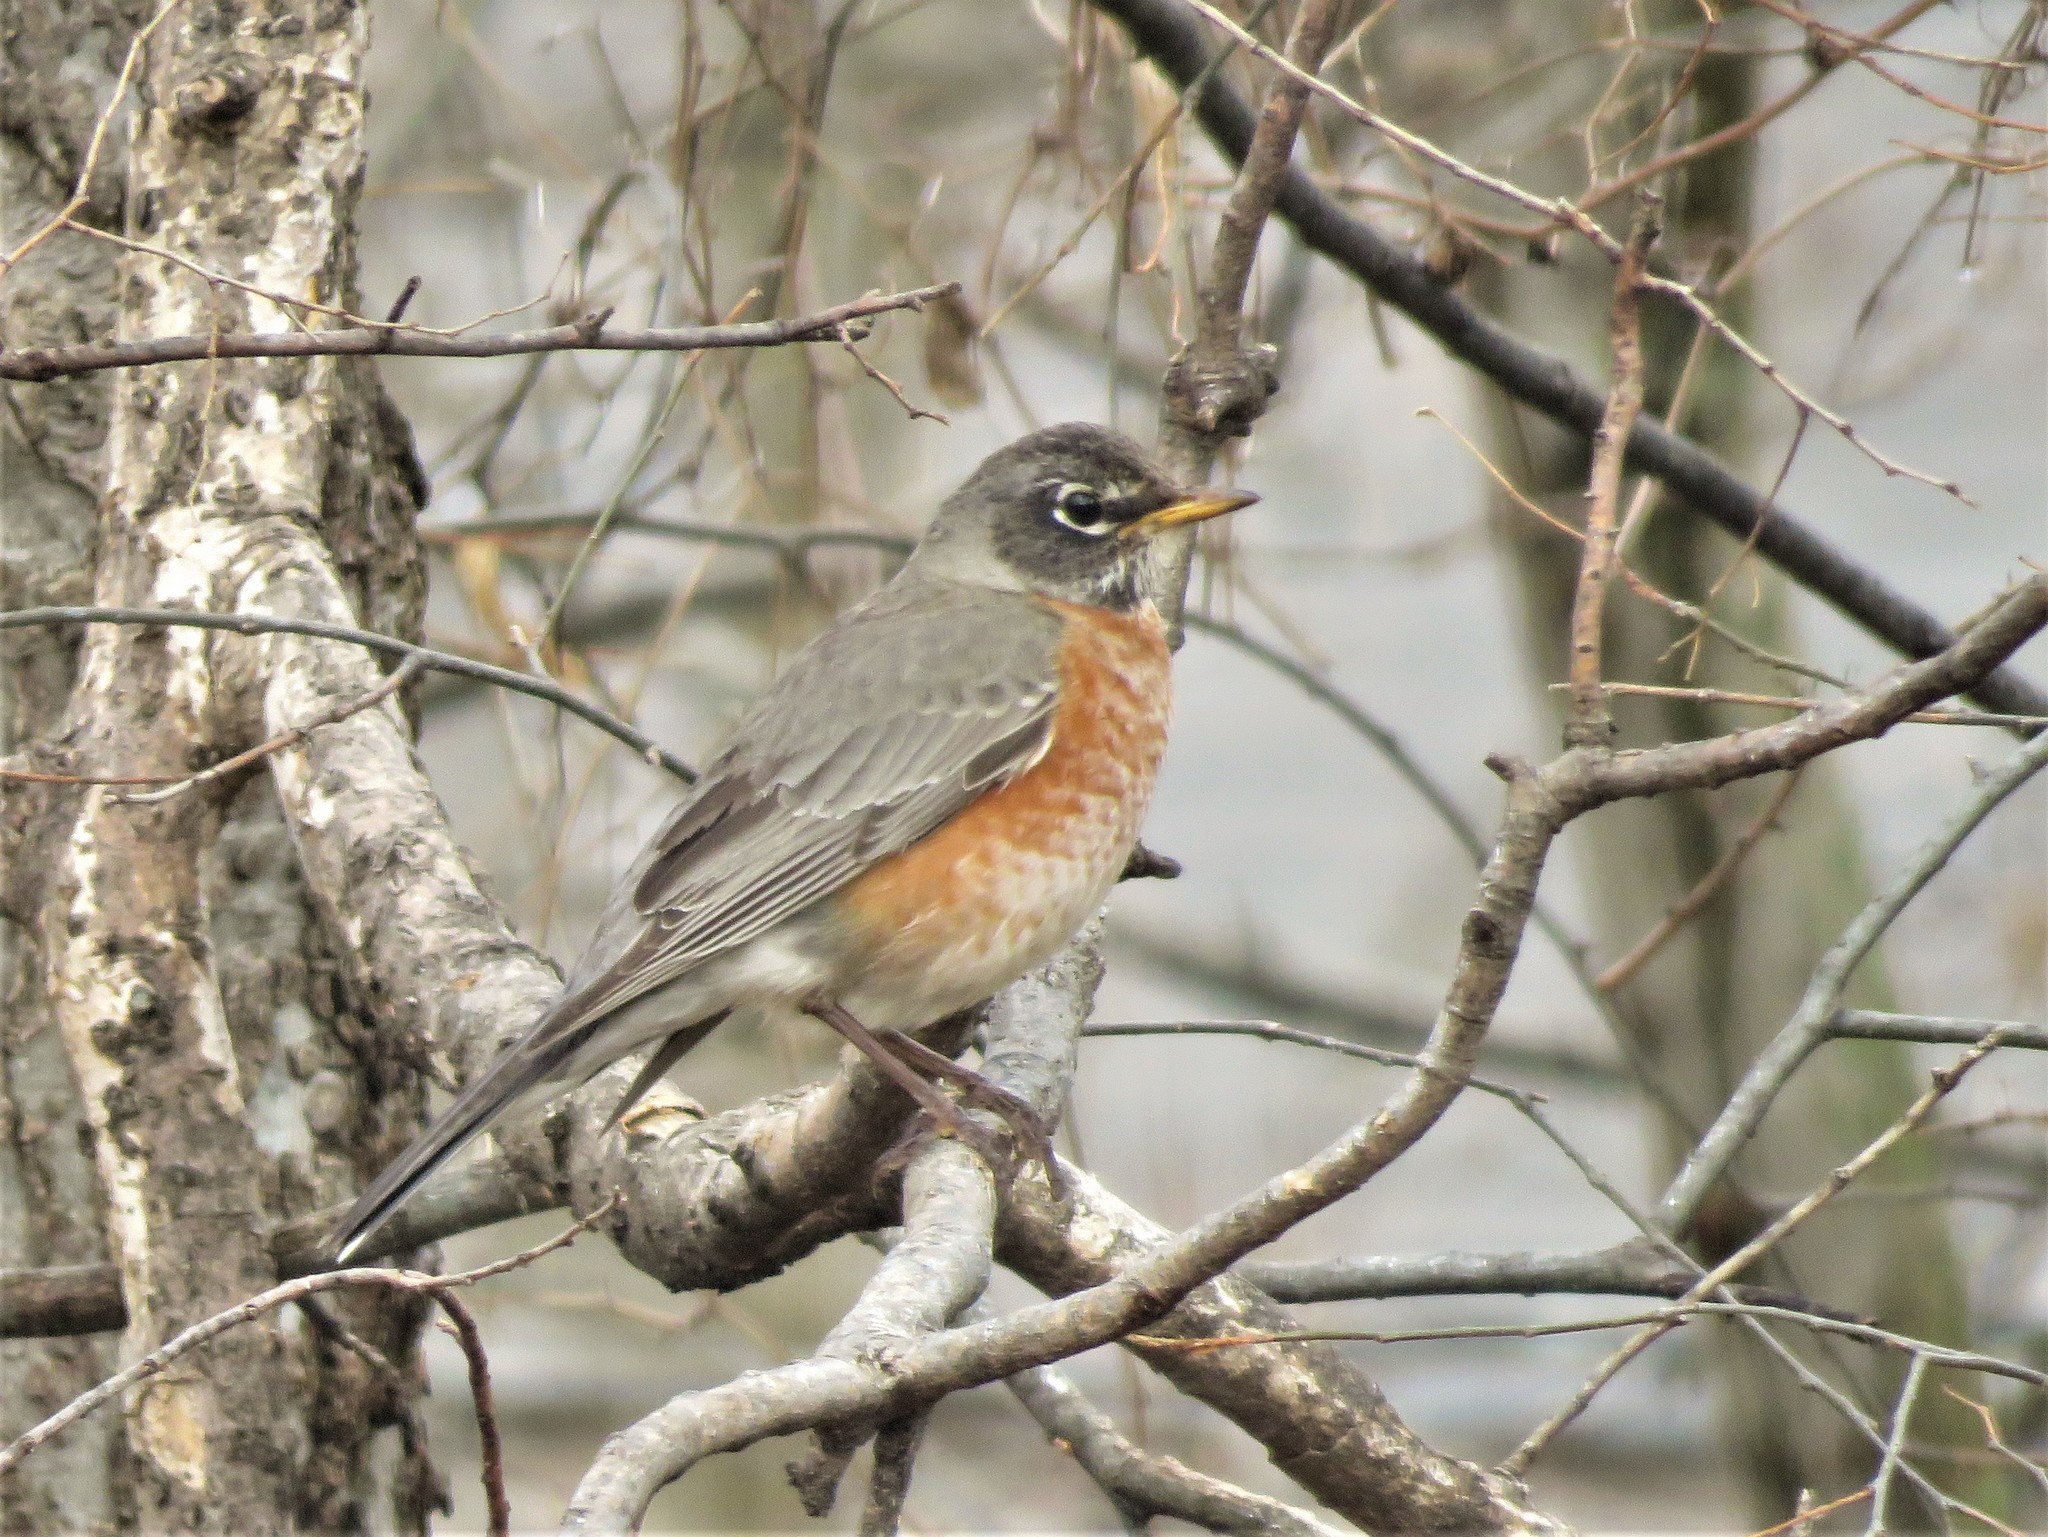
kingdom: Animalia
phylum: Chordata
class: Aves
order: Passeriformes
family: Turdidae
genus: Turdus
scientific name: Turdus migratorius
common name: American robin
